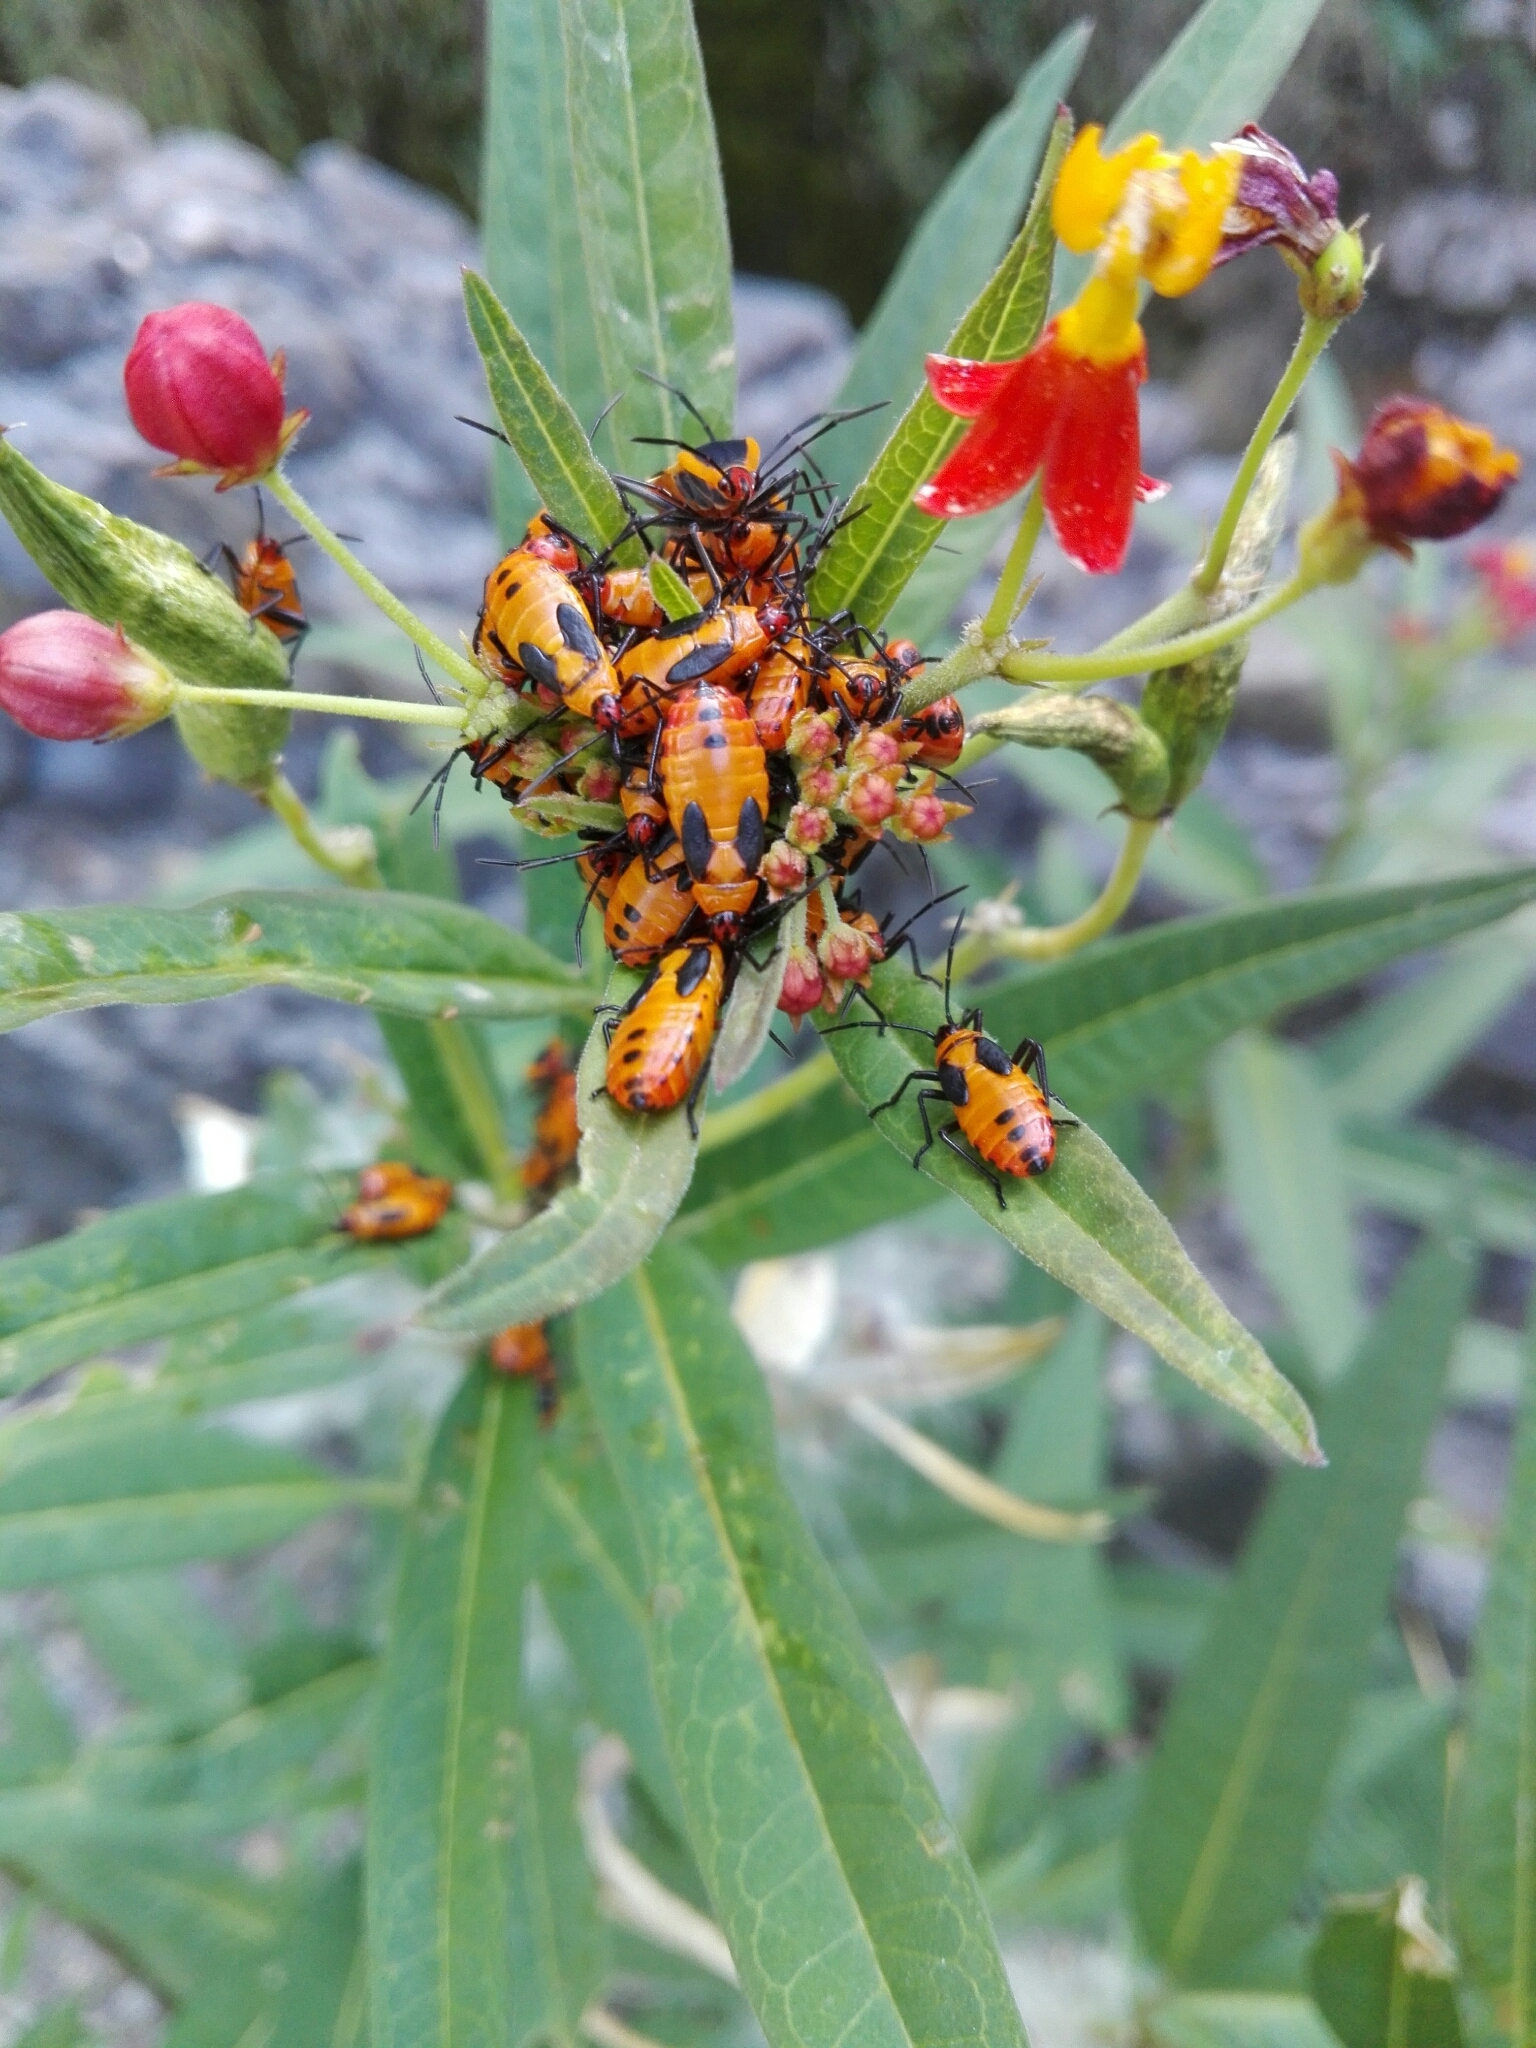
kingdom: Animalia
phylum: Arthropoda
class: Insecta
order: Hemiptera
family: Lygaeidae
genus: Oncopeltus
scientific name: Oncopeltus fasciatus
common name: Large milkweed bug
